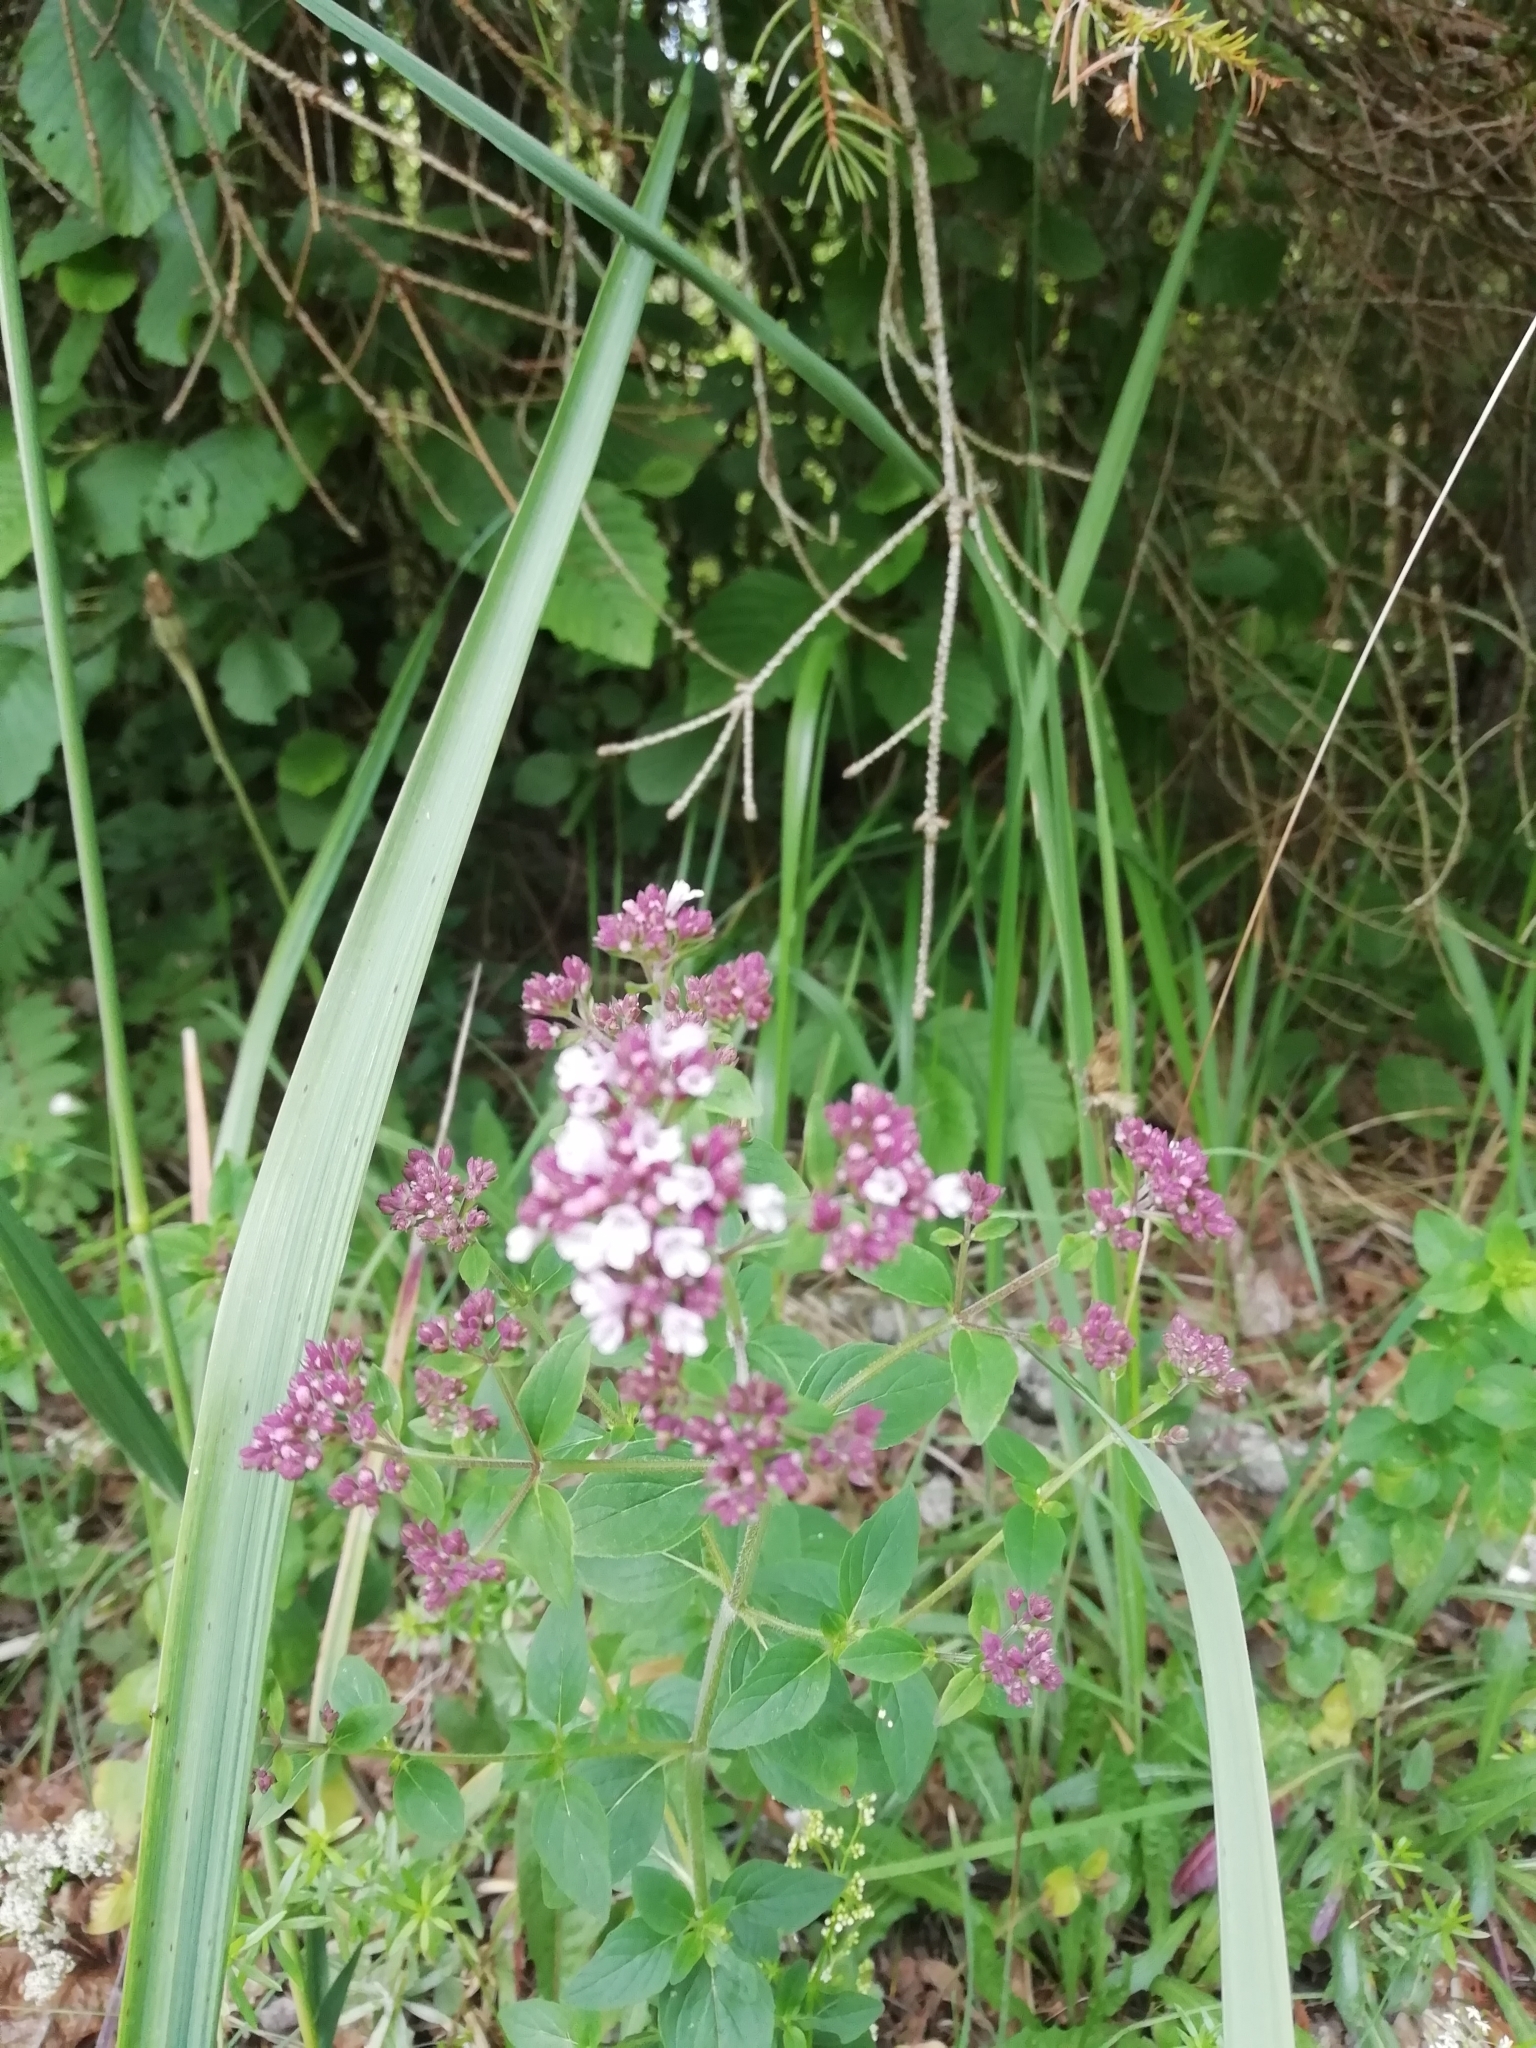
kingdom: Plantae
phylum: Tracheophyta
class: Magnoliopsida
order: Lamiales
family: Lamiaceae
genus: Origanum
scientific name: Origanum vulgare
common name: Wild marjoram
